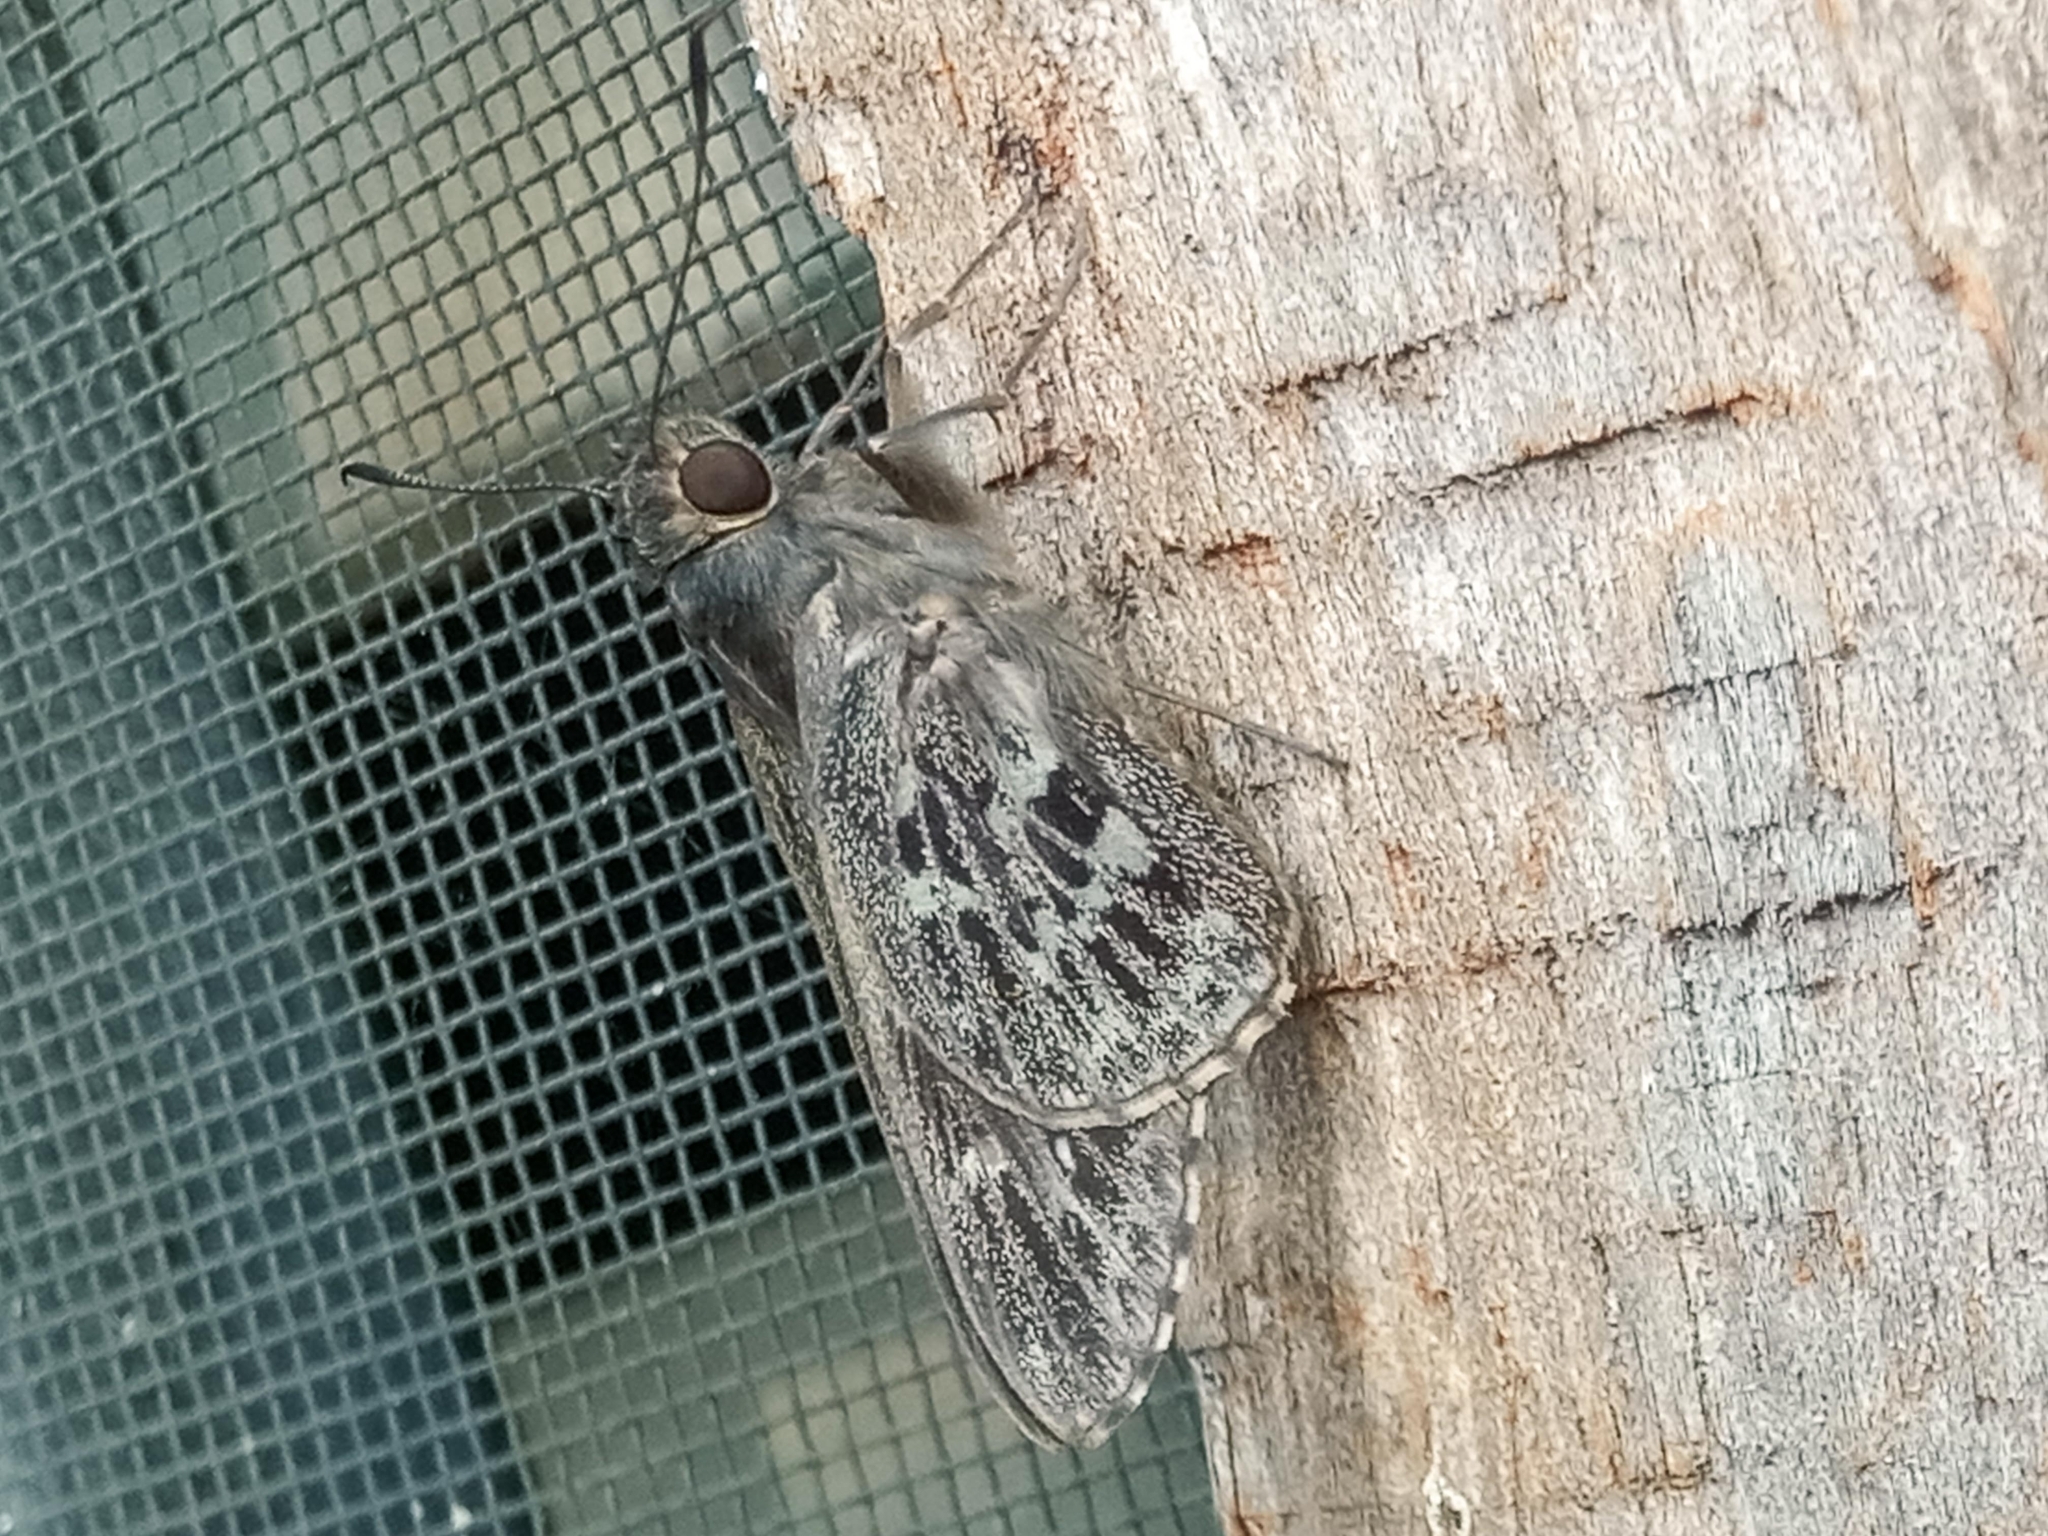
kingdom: Animalia
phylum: Arthropoda
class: Insecta
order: Lepidoptera
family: Hesperiidae
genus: Gretna
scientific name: Gretna waga
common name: Common crepuscular skipper
